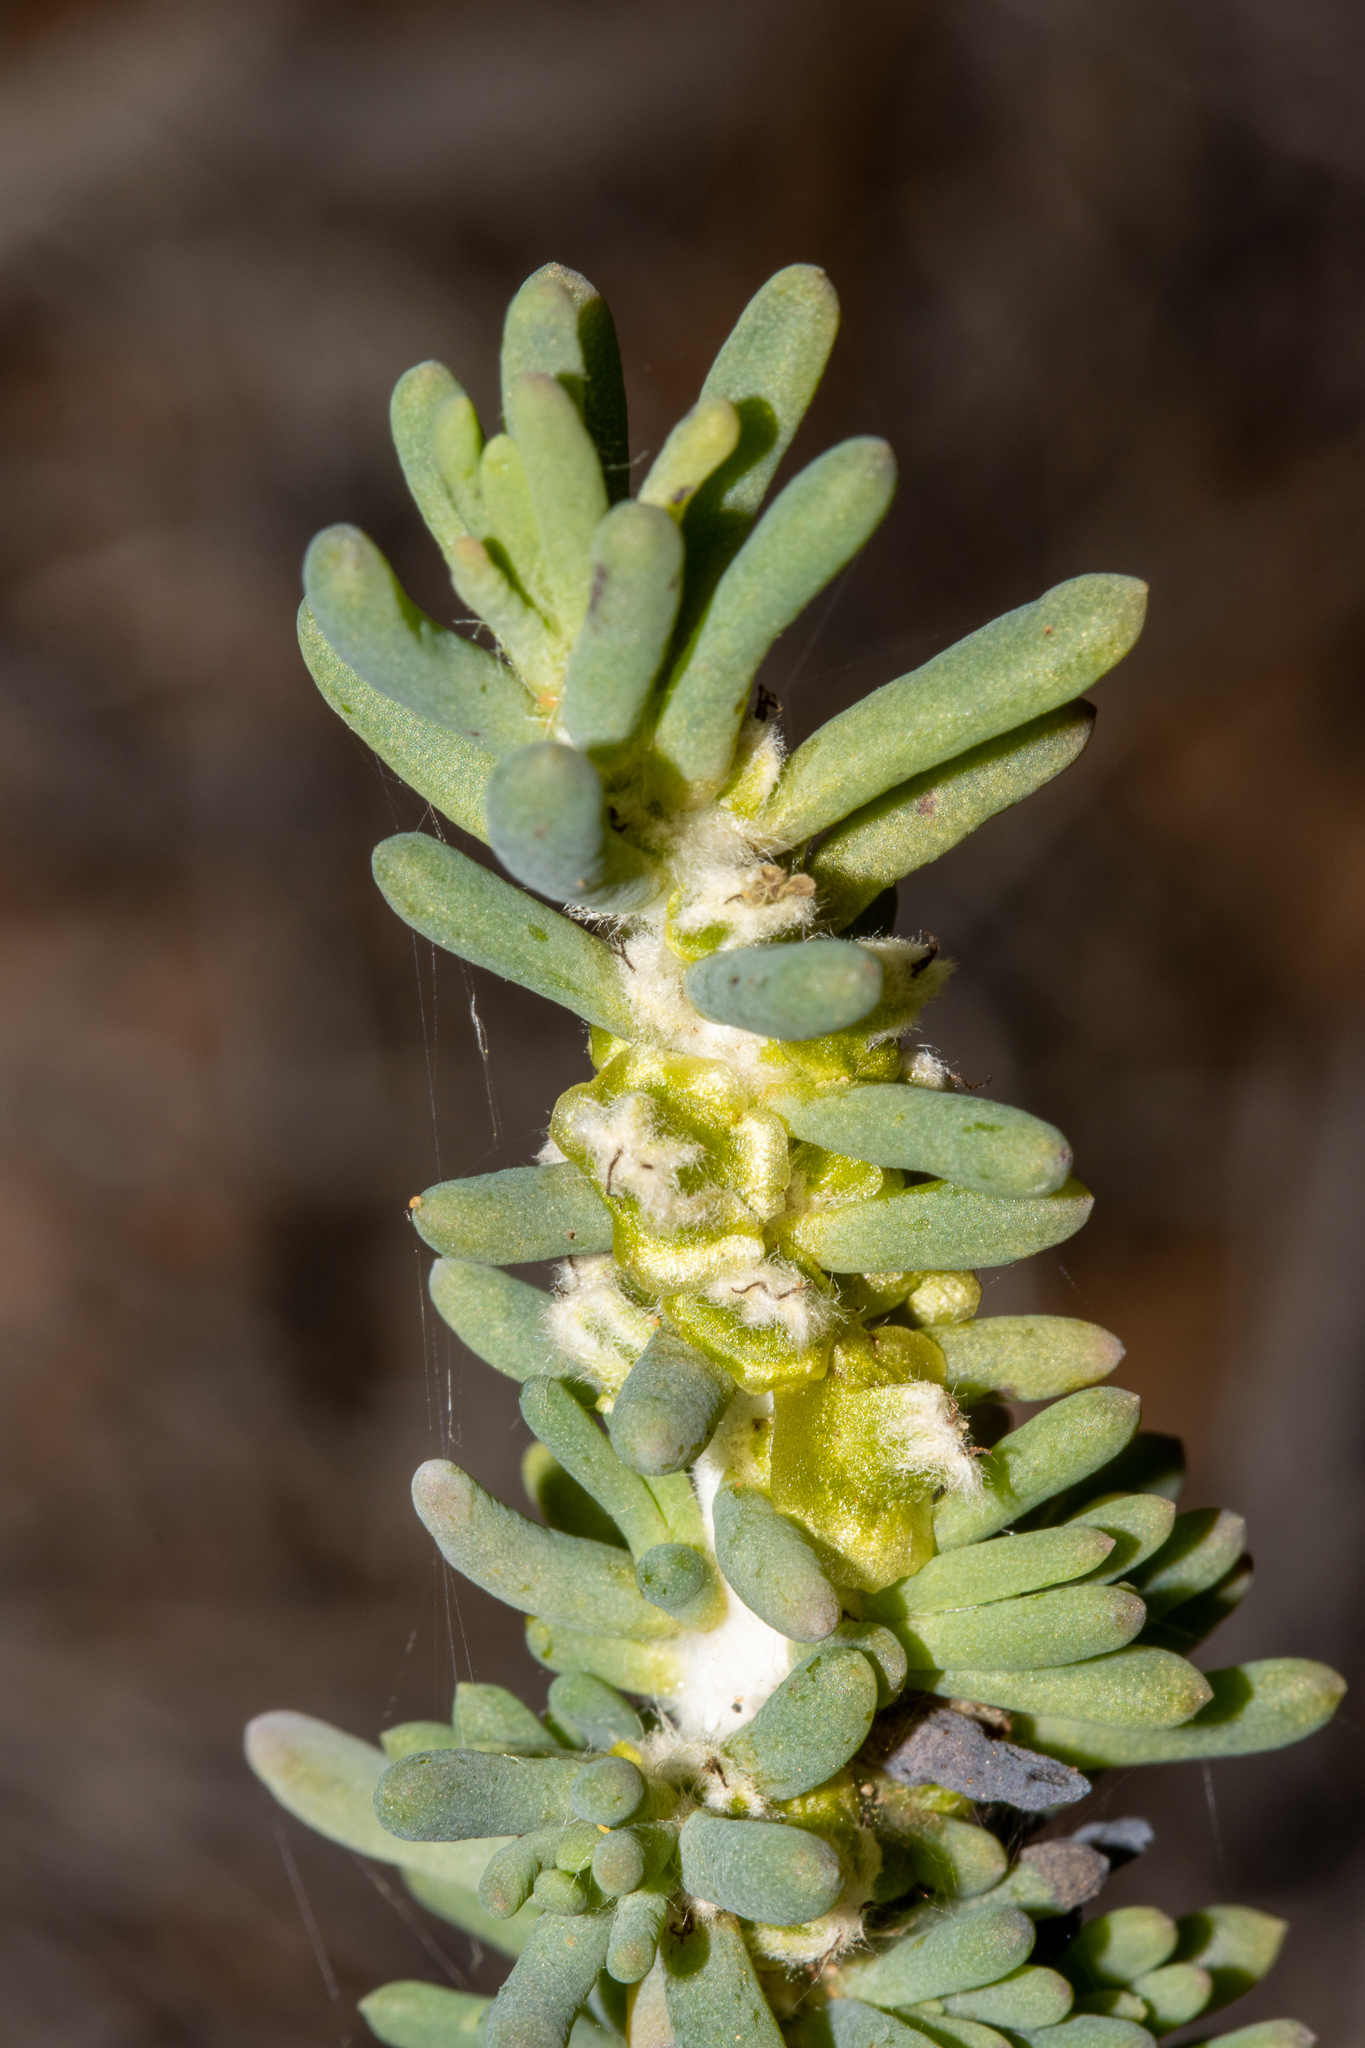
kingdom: Plantae
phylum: Tracheophyta
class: Magnoliopsida
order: Caryophyllales
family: Amaranthaceae
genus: Maireana
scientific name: Maireana pentatropis
